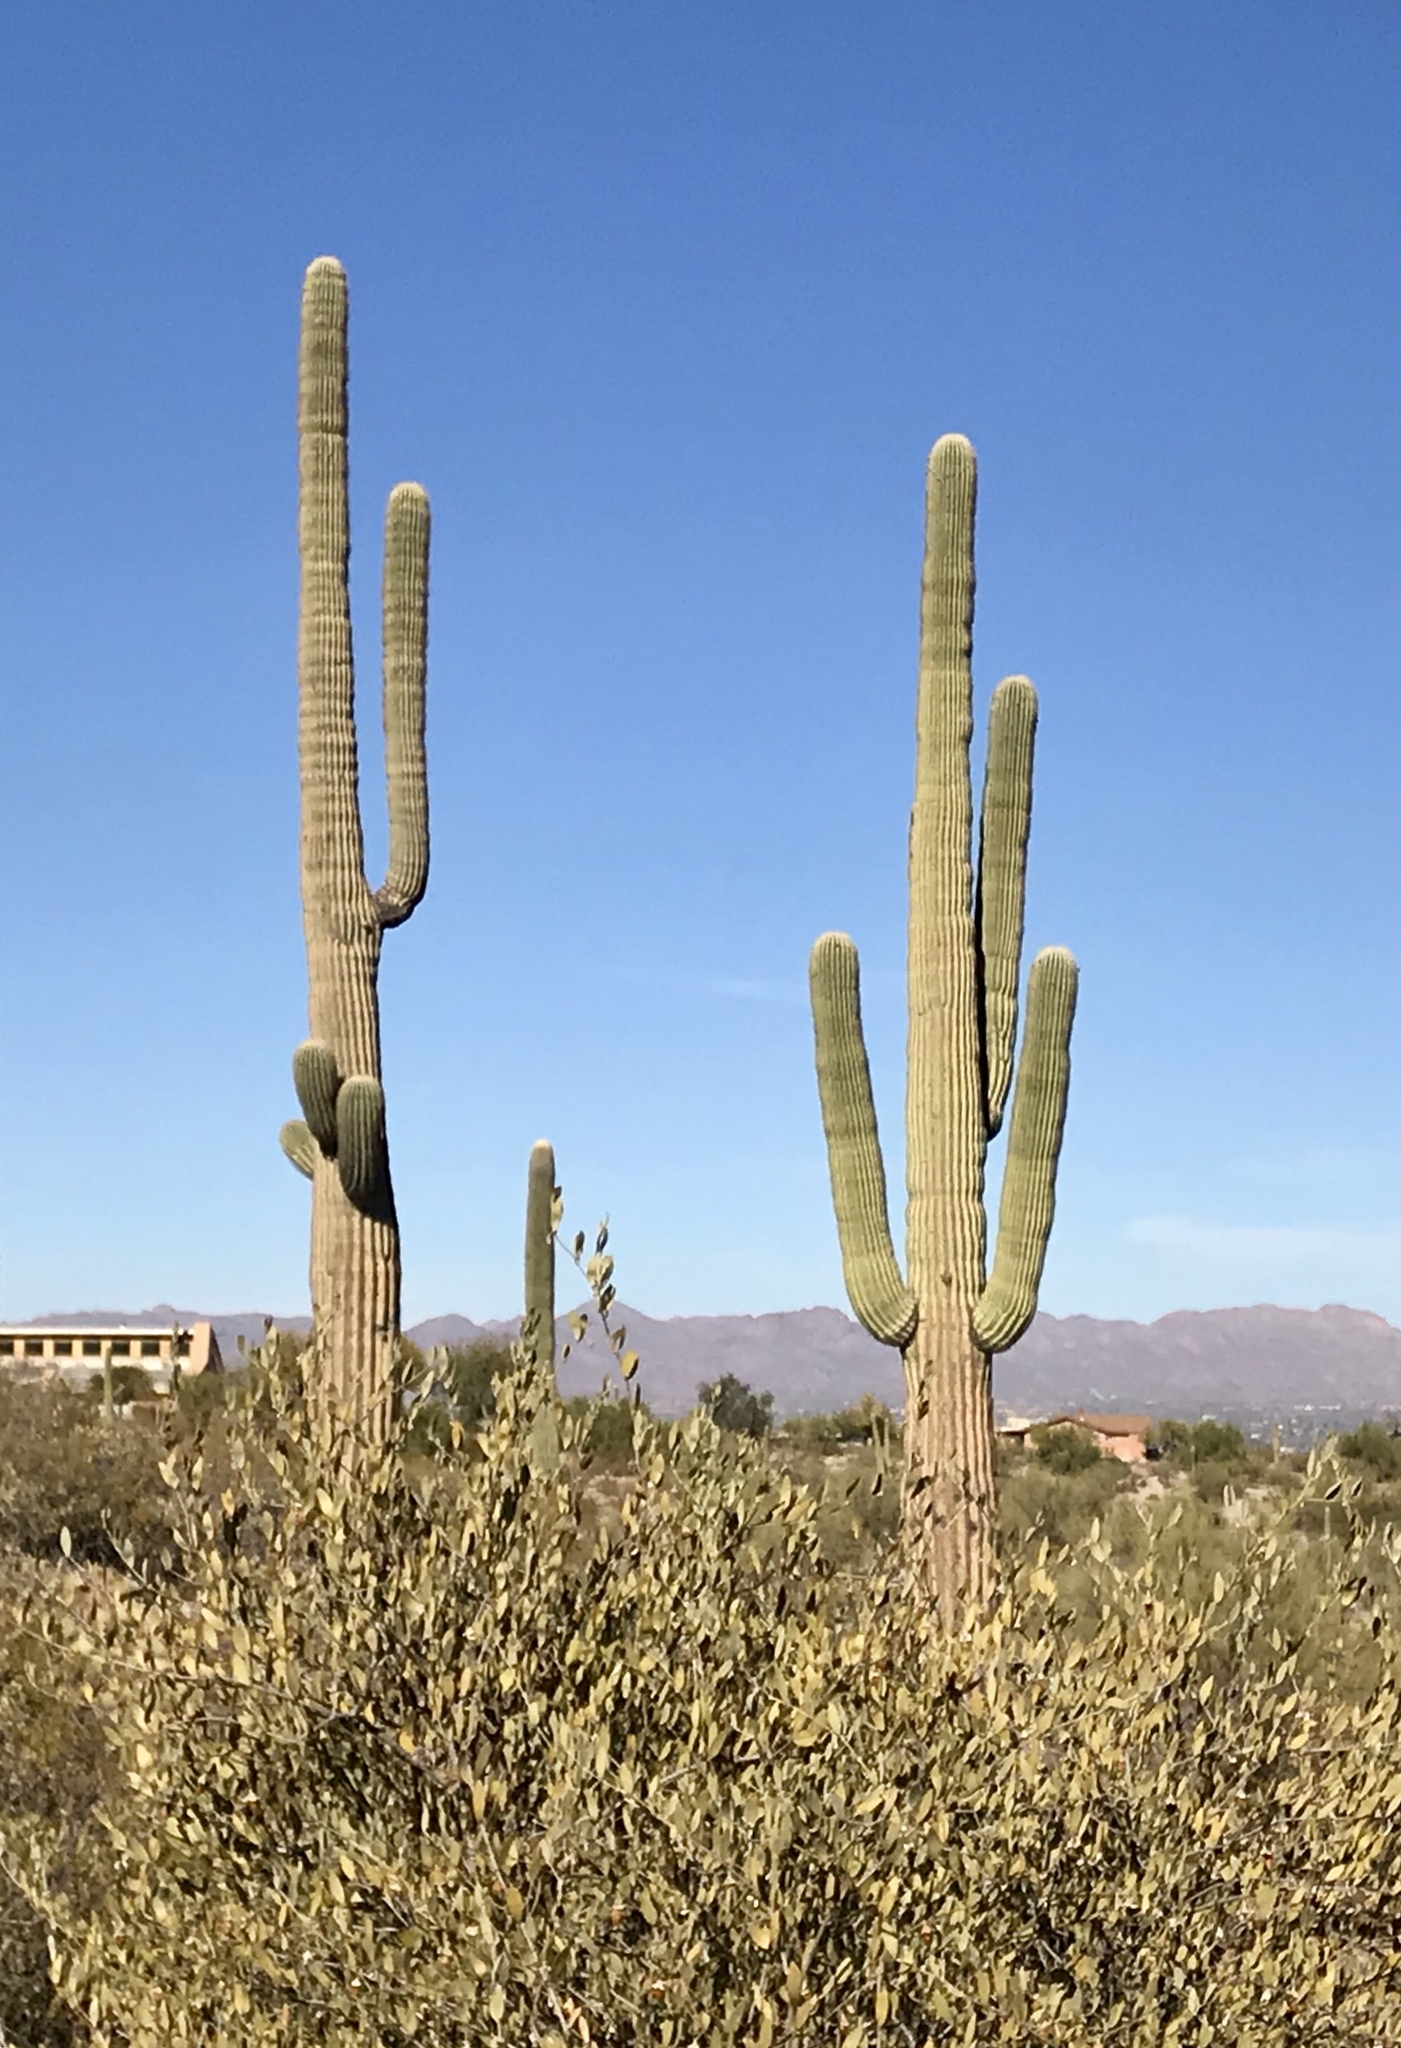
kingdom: Plantae
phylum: Tracheophyta
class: Magnoliopsida
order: Caryophyllales
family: Cactaceae
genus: Carnegiea
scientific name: Carnegiea gigantea
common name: Saguaro
